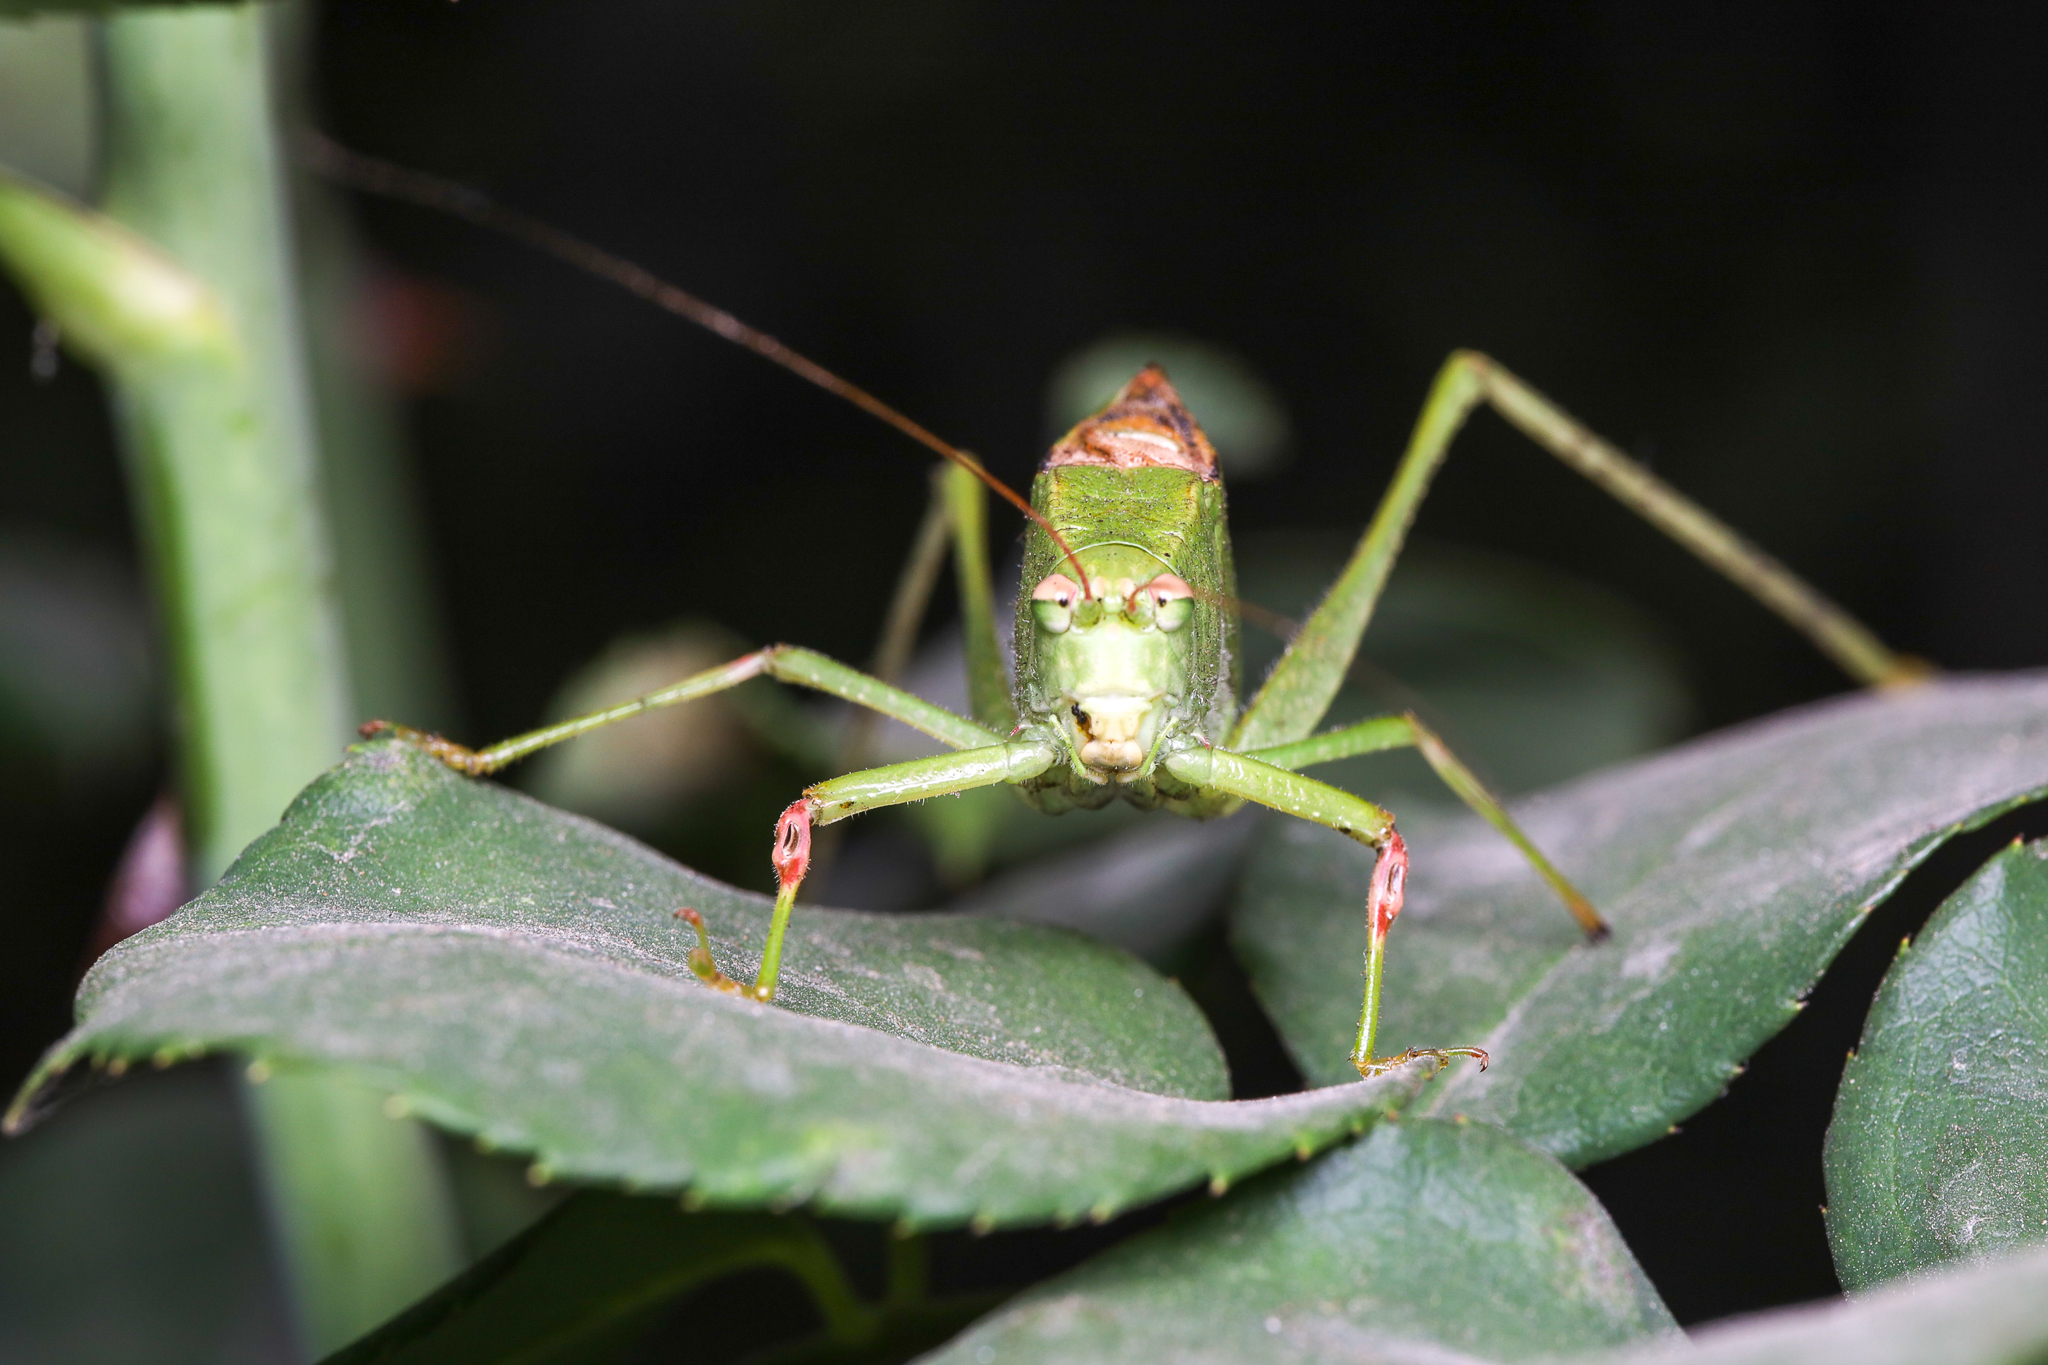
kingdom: Animalia
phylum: Arthropoda
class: Insecta
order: Orthoptera
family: Tettigoniidae
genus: Syntechna
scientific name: Syntechna tarasca
